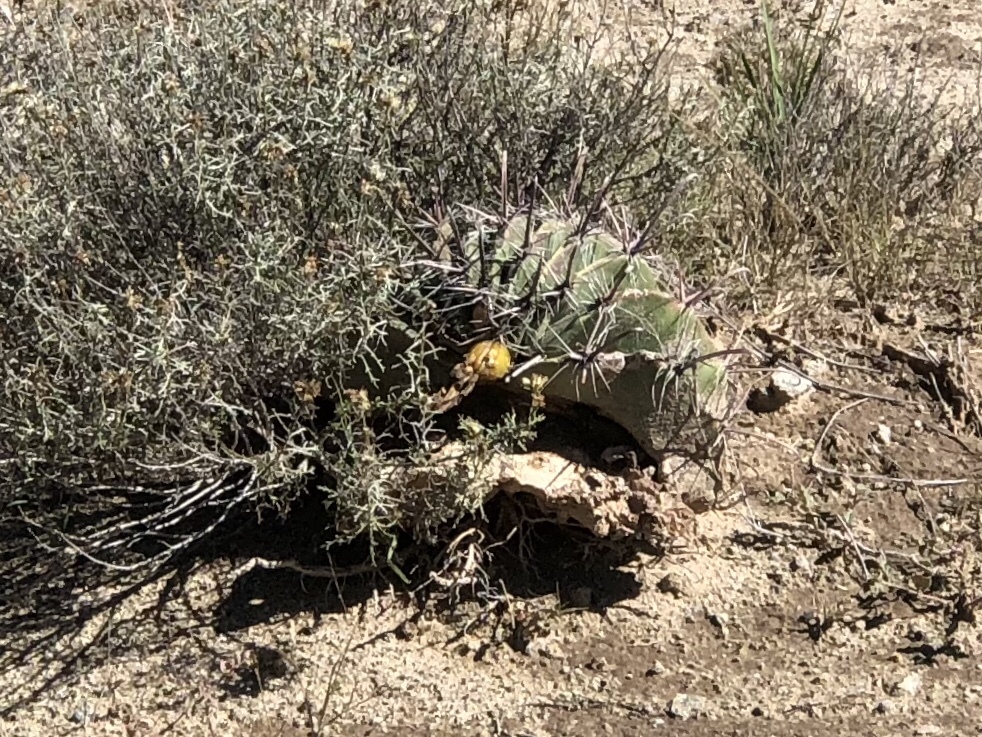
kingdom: Plantae
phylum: Tracheophyta
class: Magnoliopsida
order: Caryophyllales
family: Cactaceae
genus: Ferocactus
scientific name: Ferocactus wislizeni
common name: Candy barrel cactus
